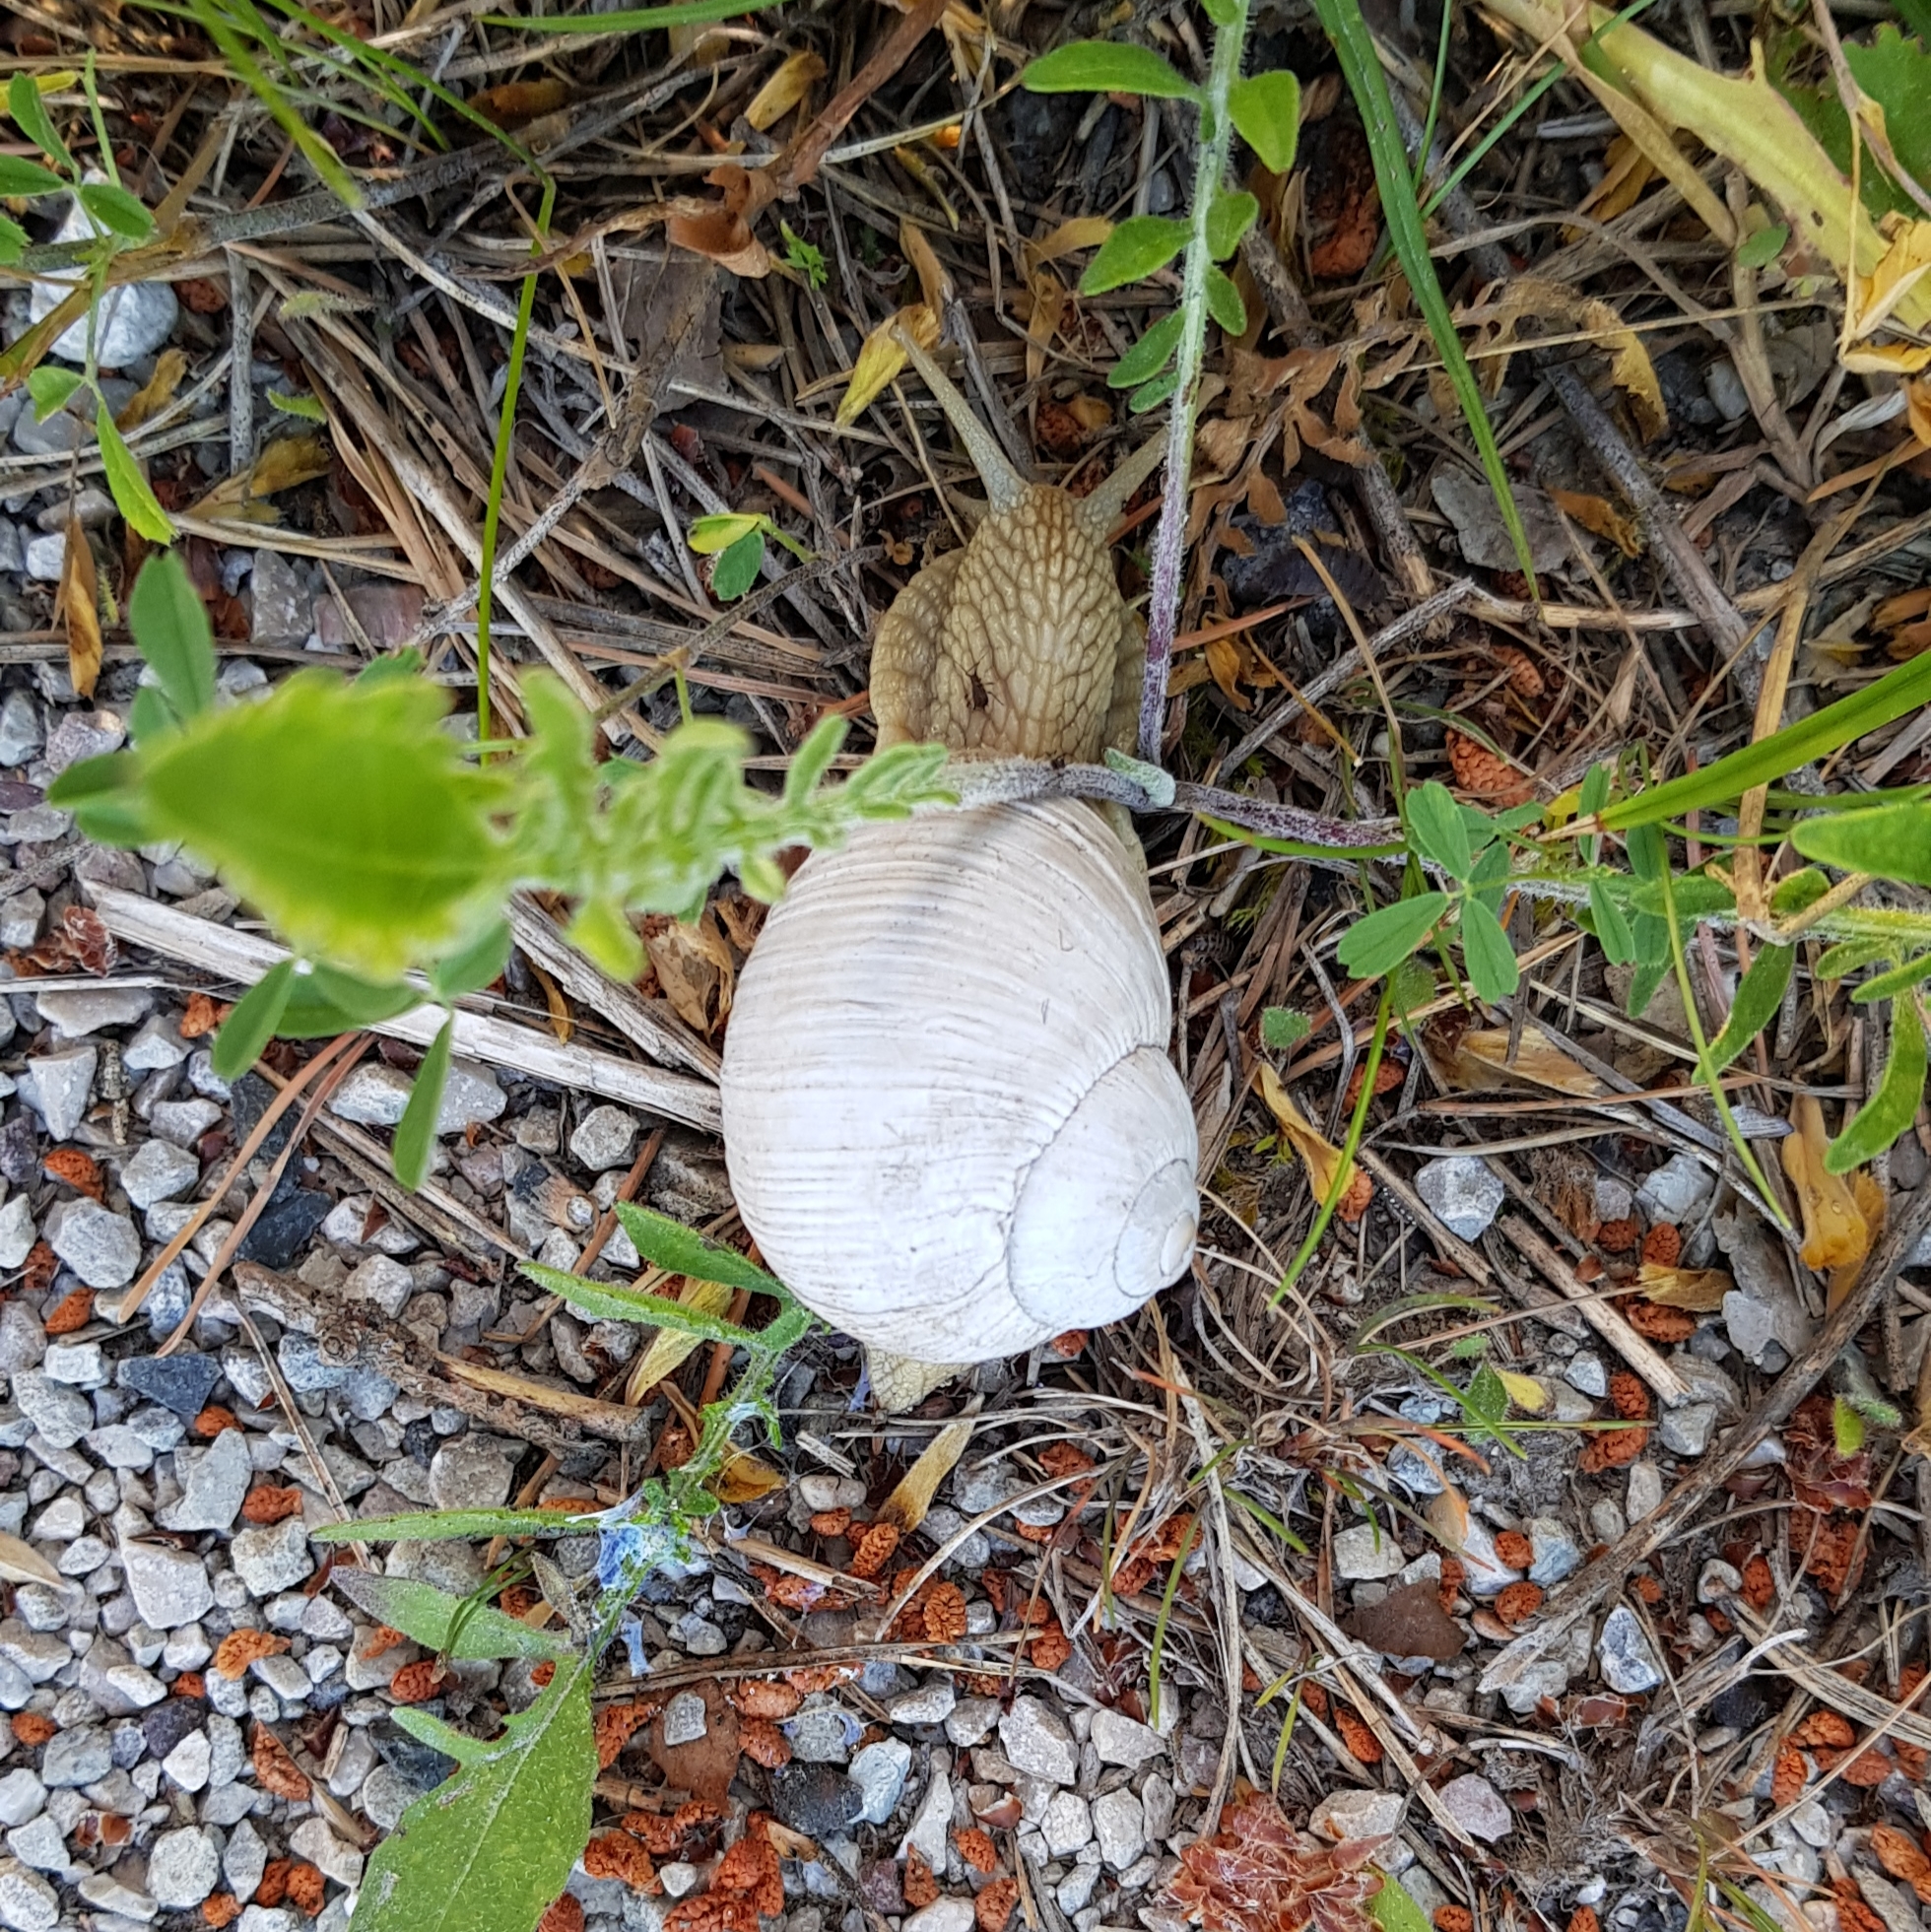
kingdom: Animalia
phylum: Mollusca
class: Gastropoda
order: Stylommatophora
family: Helicidae
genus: Helix
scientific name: Helix pomatia
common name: Roman snail
